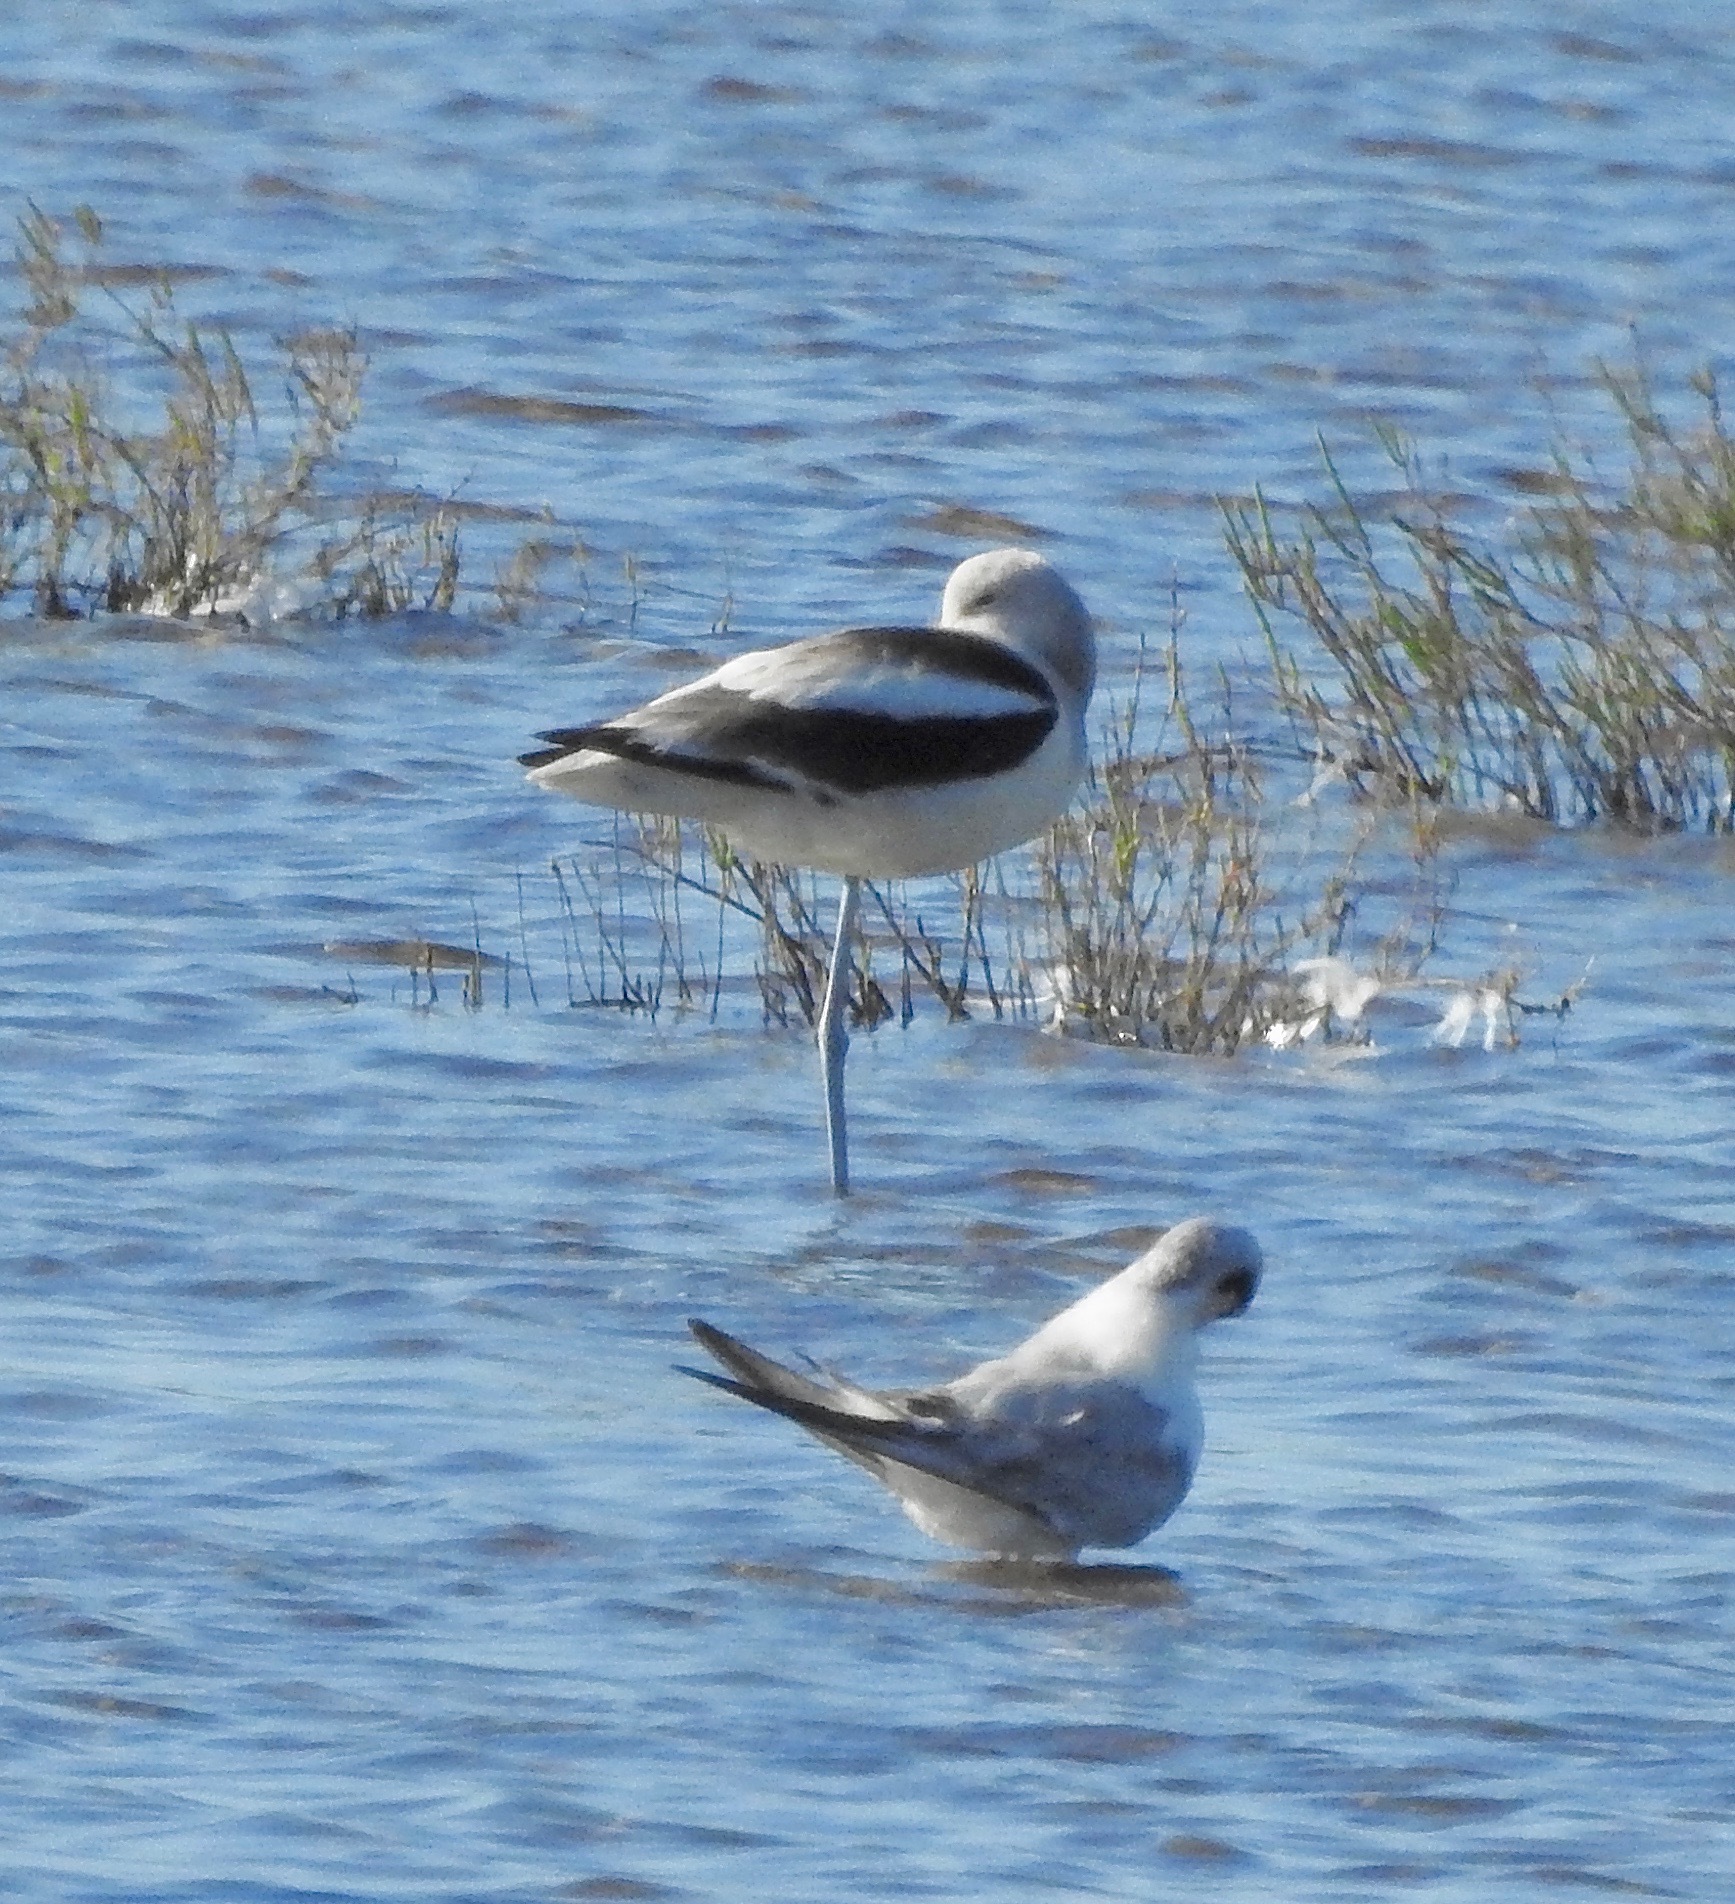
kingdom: Animalia
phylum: Chordata
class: Aves
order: Charadriiformes
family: Recurvirostridae
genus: Recurvirostra
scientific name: Recurvirostra americana
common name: American avocet
